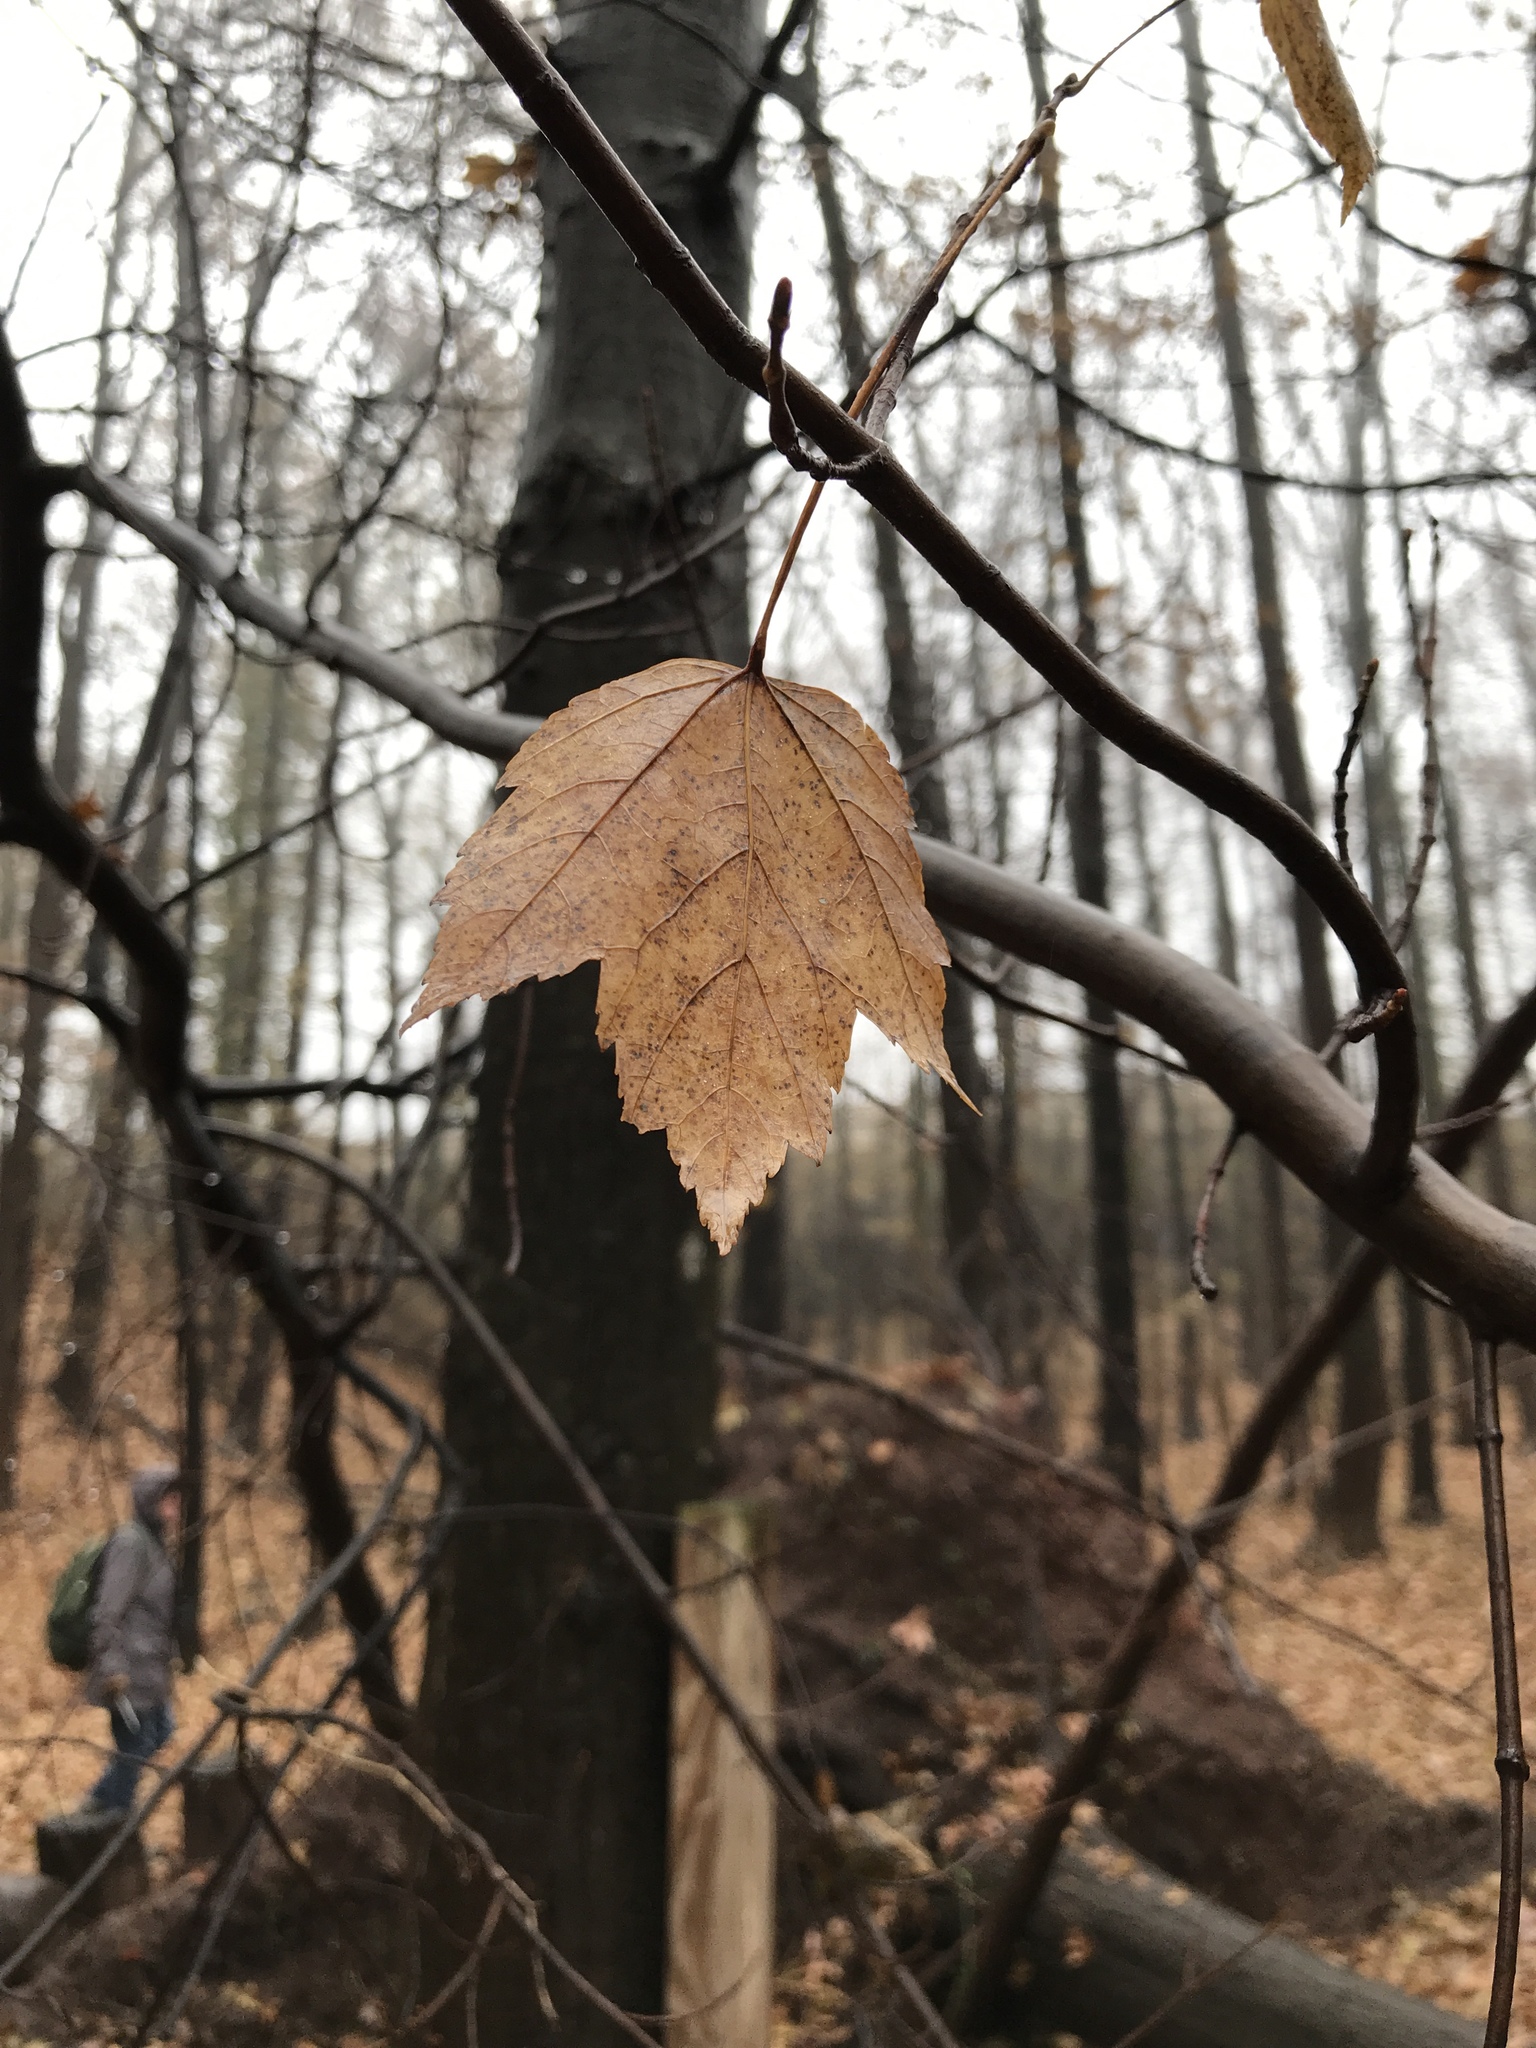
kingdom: Plantae
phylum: Tracheophyta
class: Magnoliopsida
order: Sapindales
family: Sapindaceae
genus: Acer
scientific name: Acer rubrum
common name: Red maple
